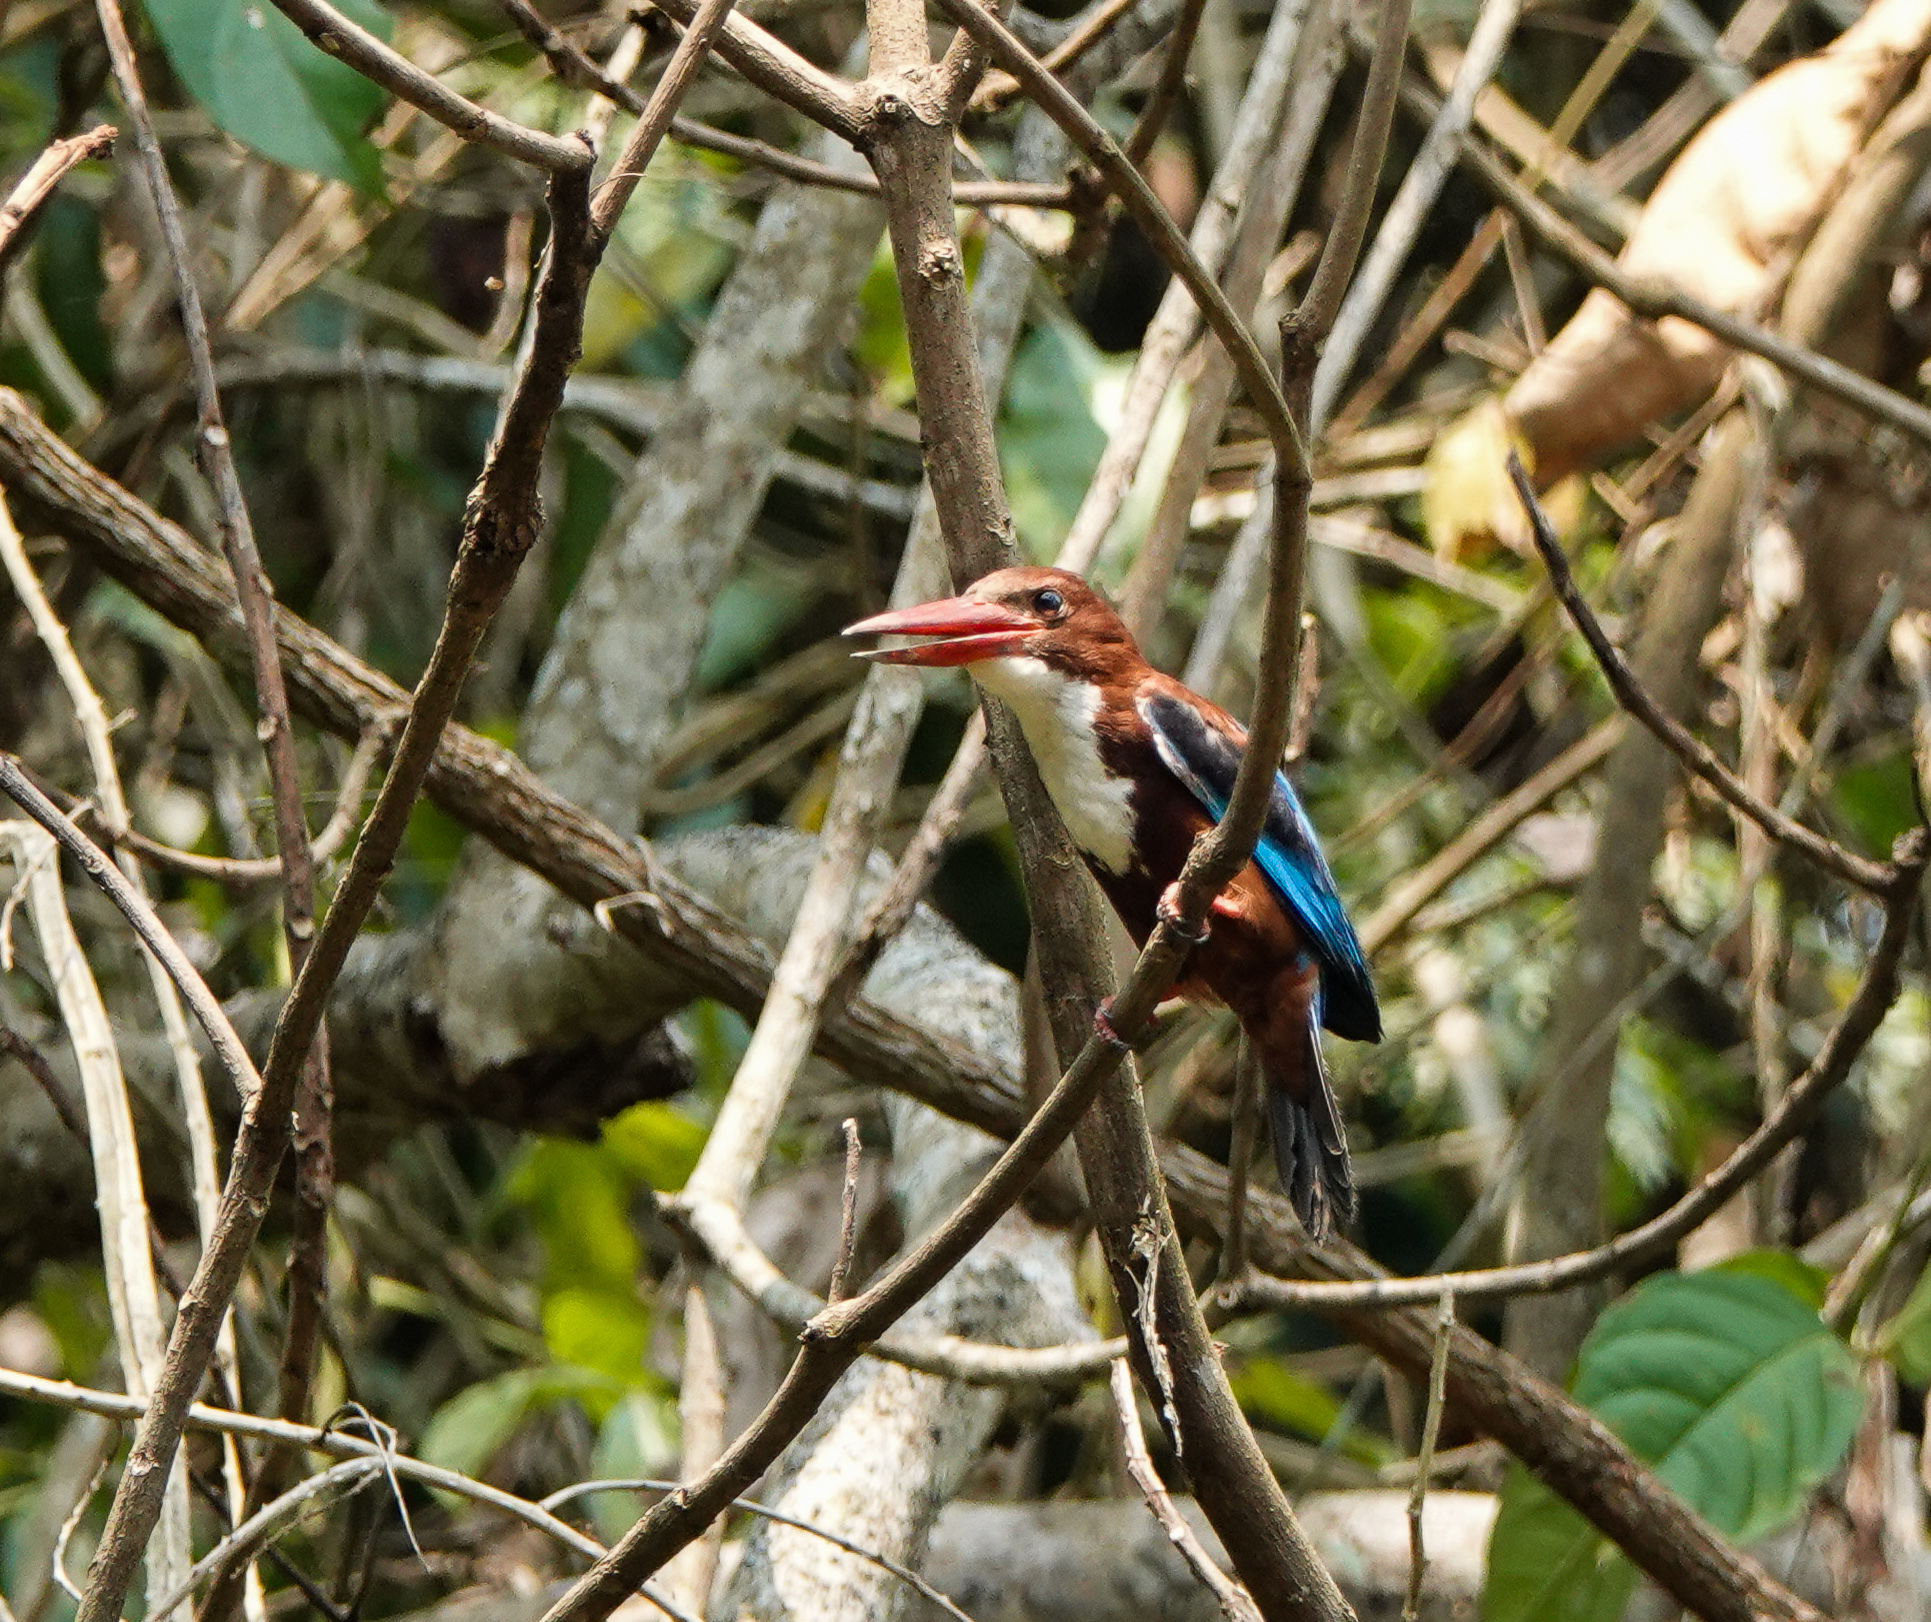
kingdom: Animalia
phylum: Chordata
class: Aves
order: Coraciiformes
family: Alcedinidae
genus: Halcyon
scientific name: Halcyon smyrnensis
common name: White-throated kingfisher
